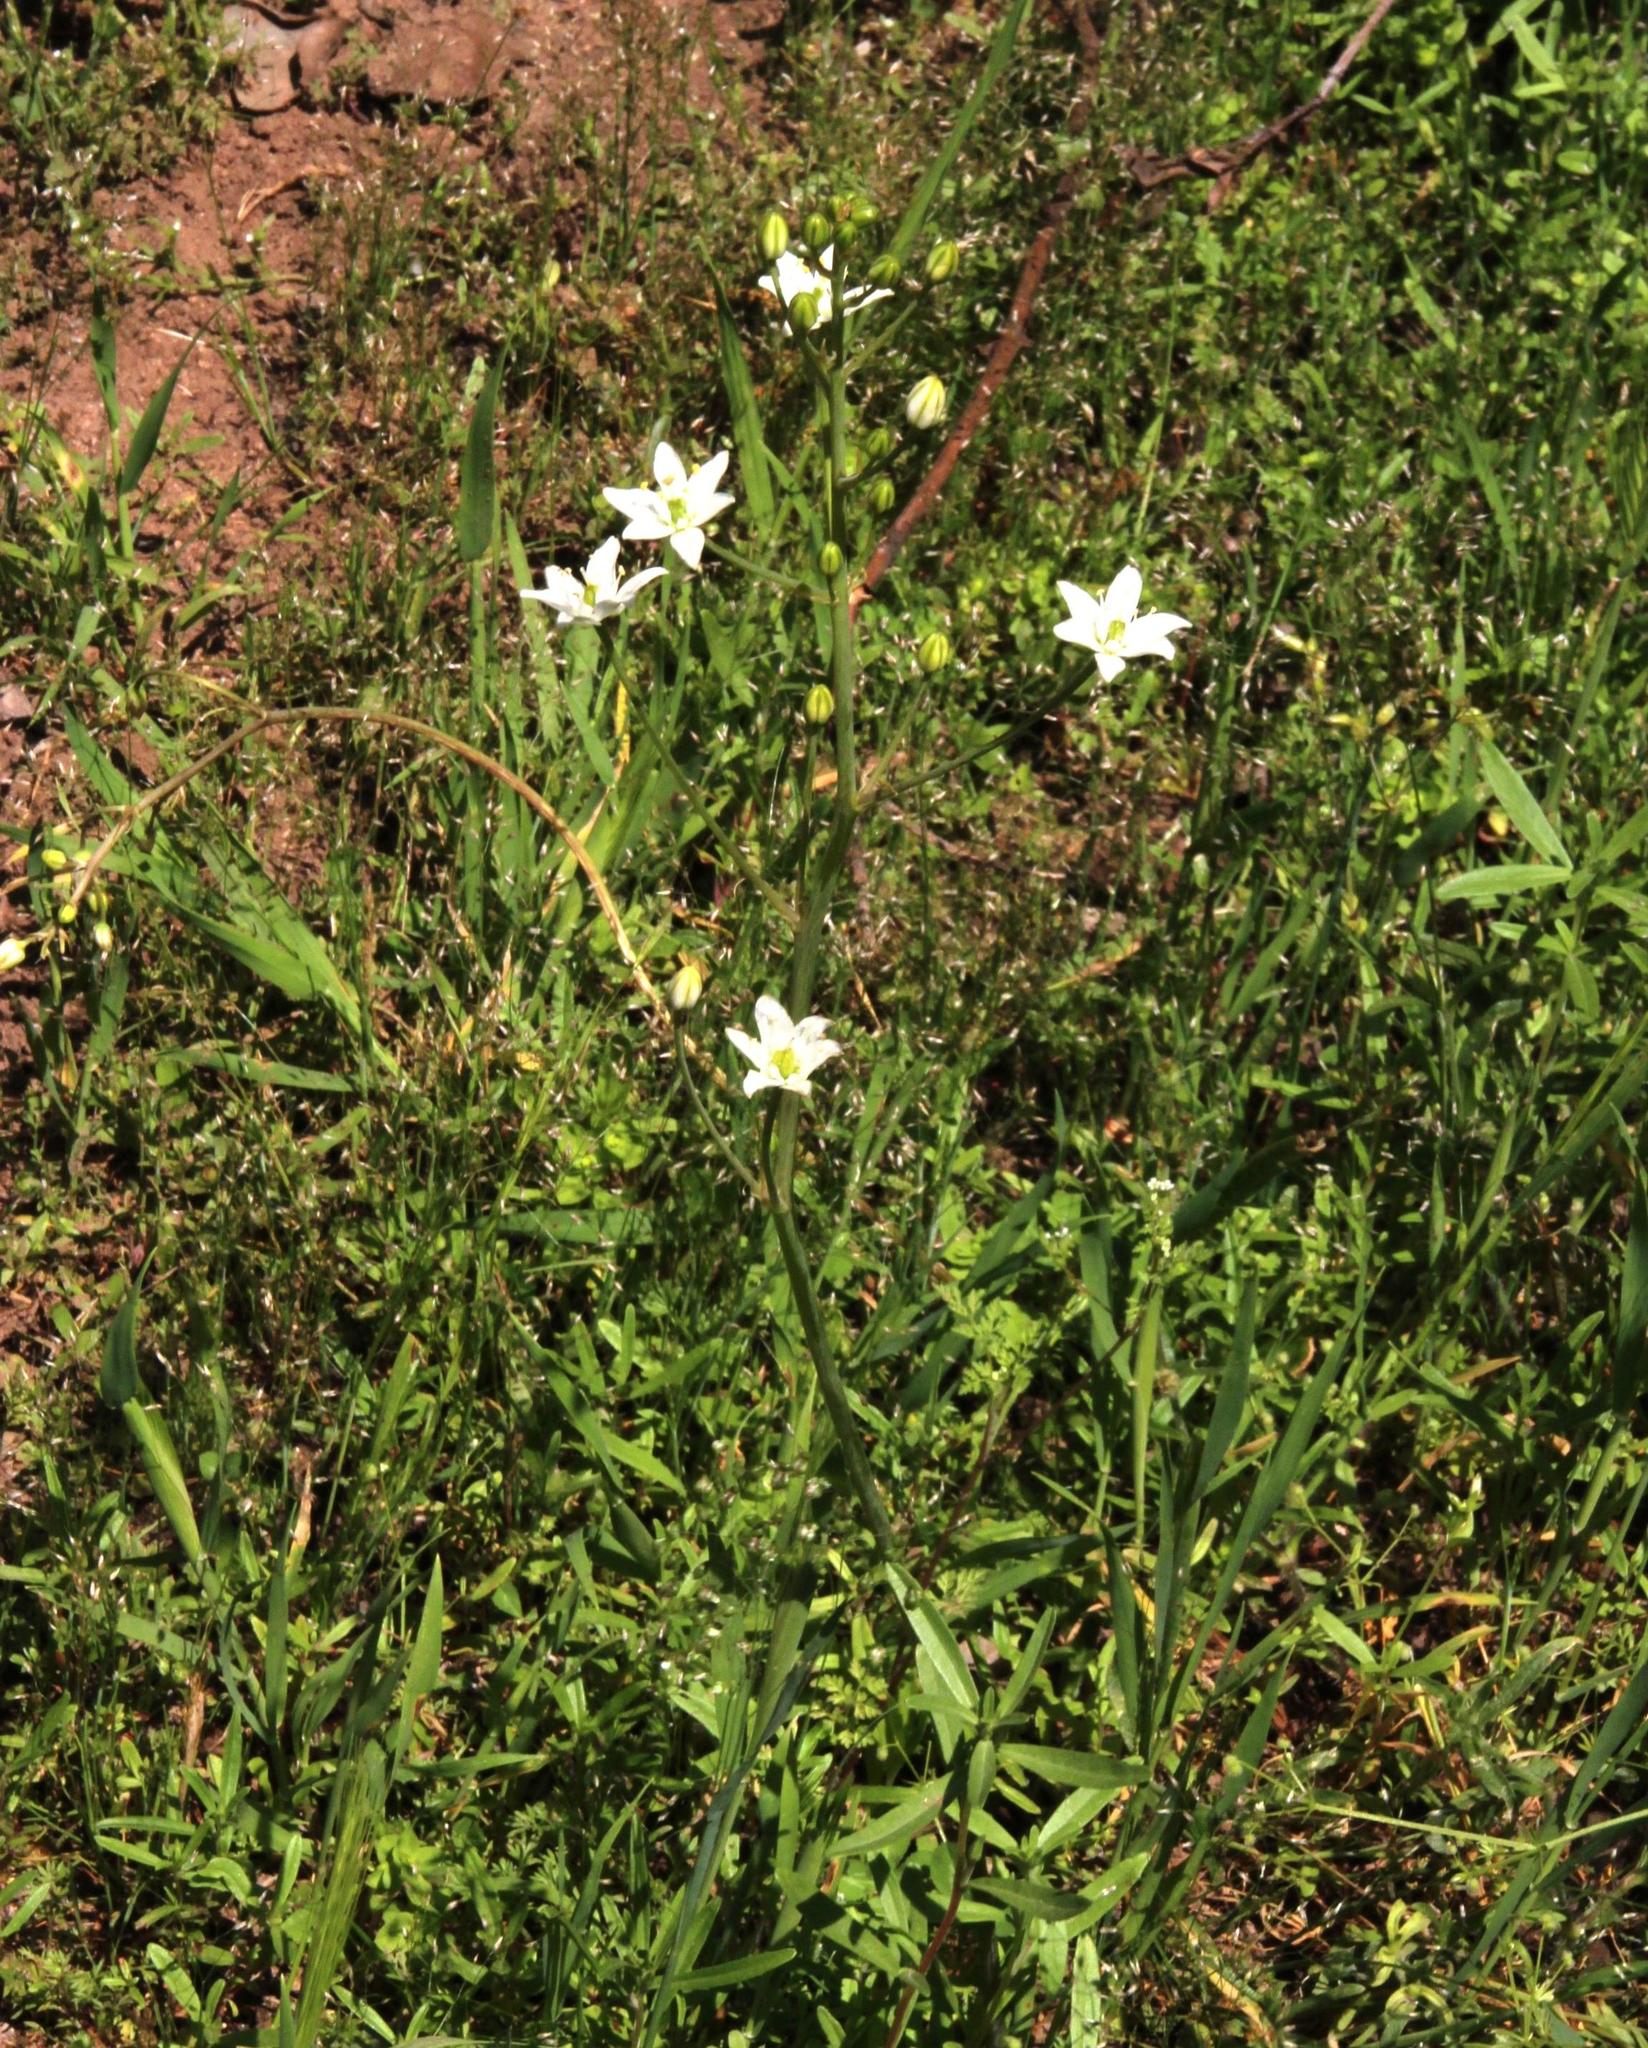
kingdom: Plantae
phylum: Tracheophyta
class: Liliopsida
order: Asparagales
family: Asparagaceae
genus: Oziroe
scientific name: Oziroe arida
